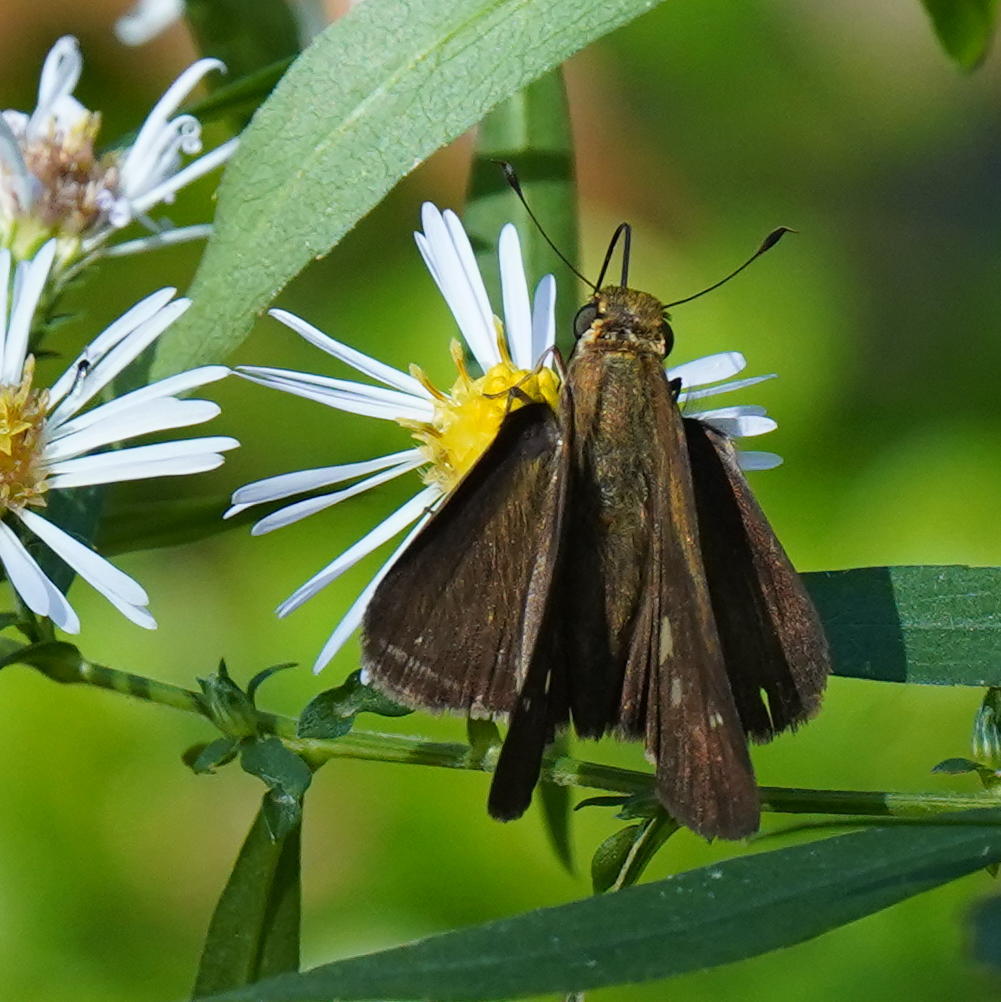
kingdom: Animalia
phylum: Arthropoda
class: Insecta
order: Lepidoptera
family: Hesperiidae
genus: Panoquina
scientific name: Panoquina ocola
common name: Ocola skipper
